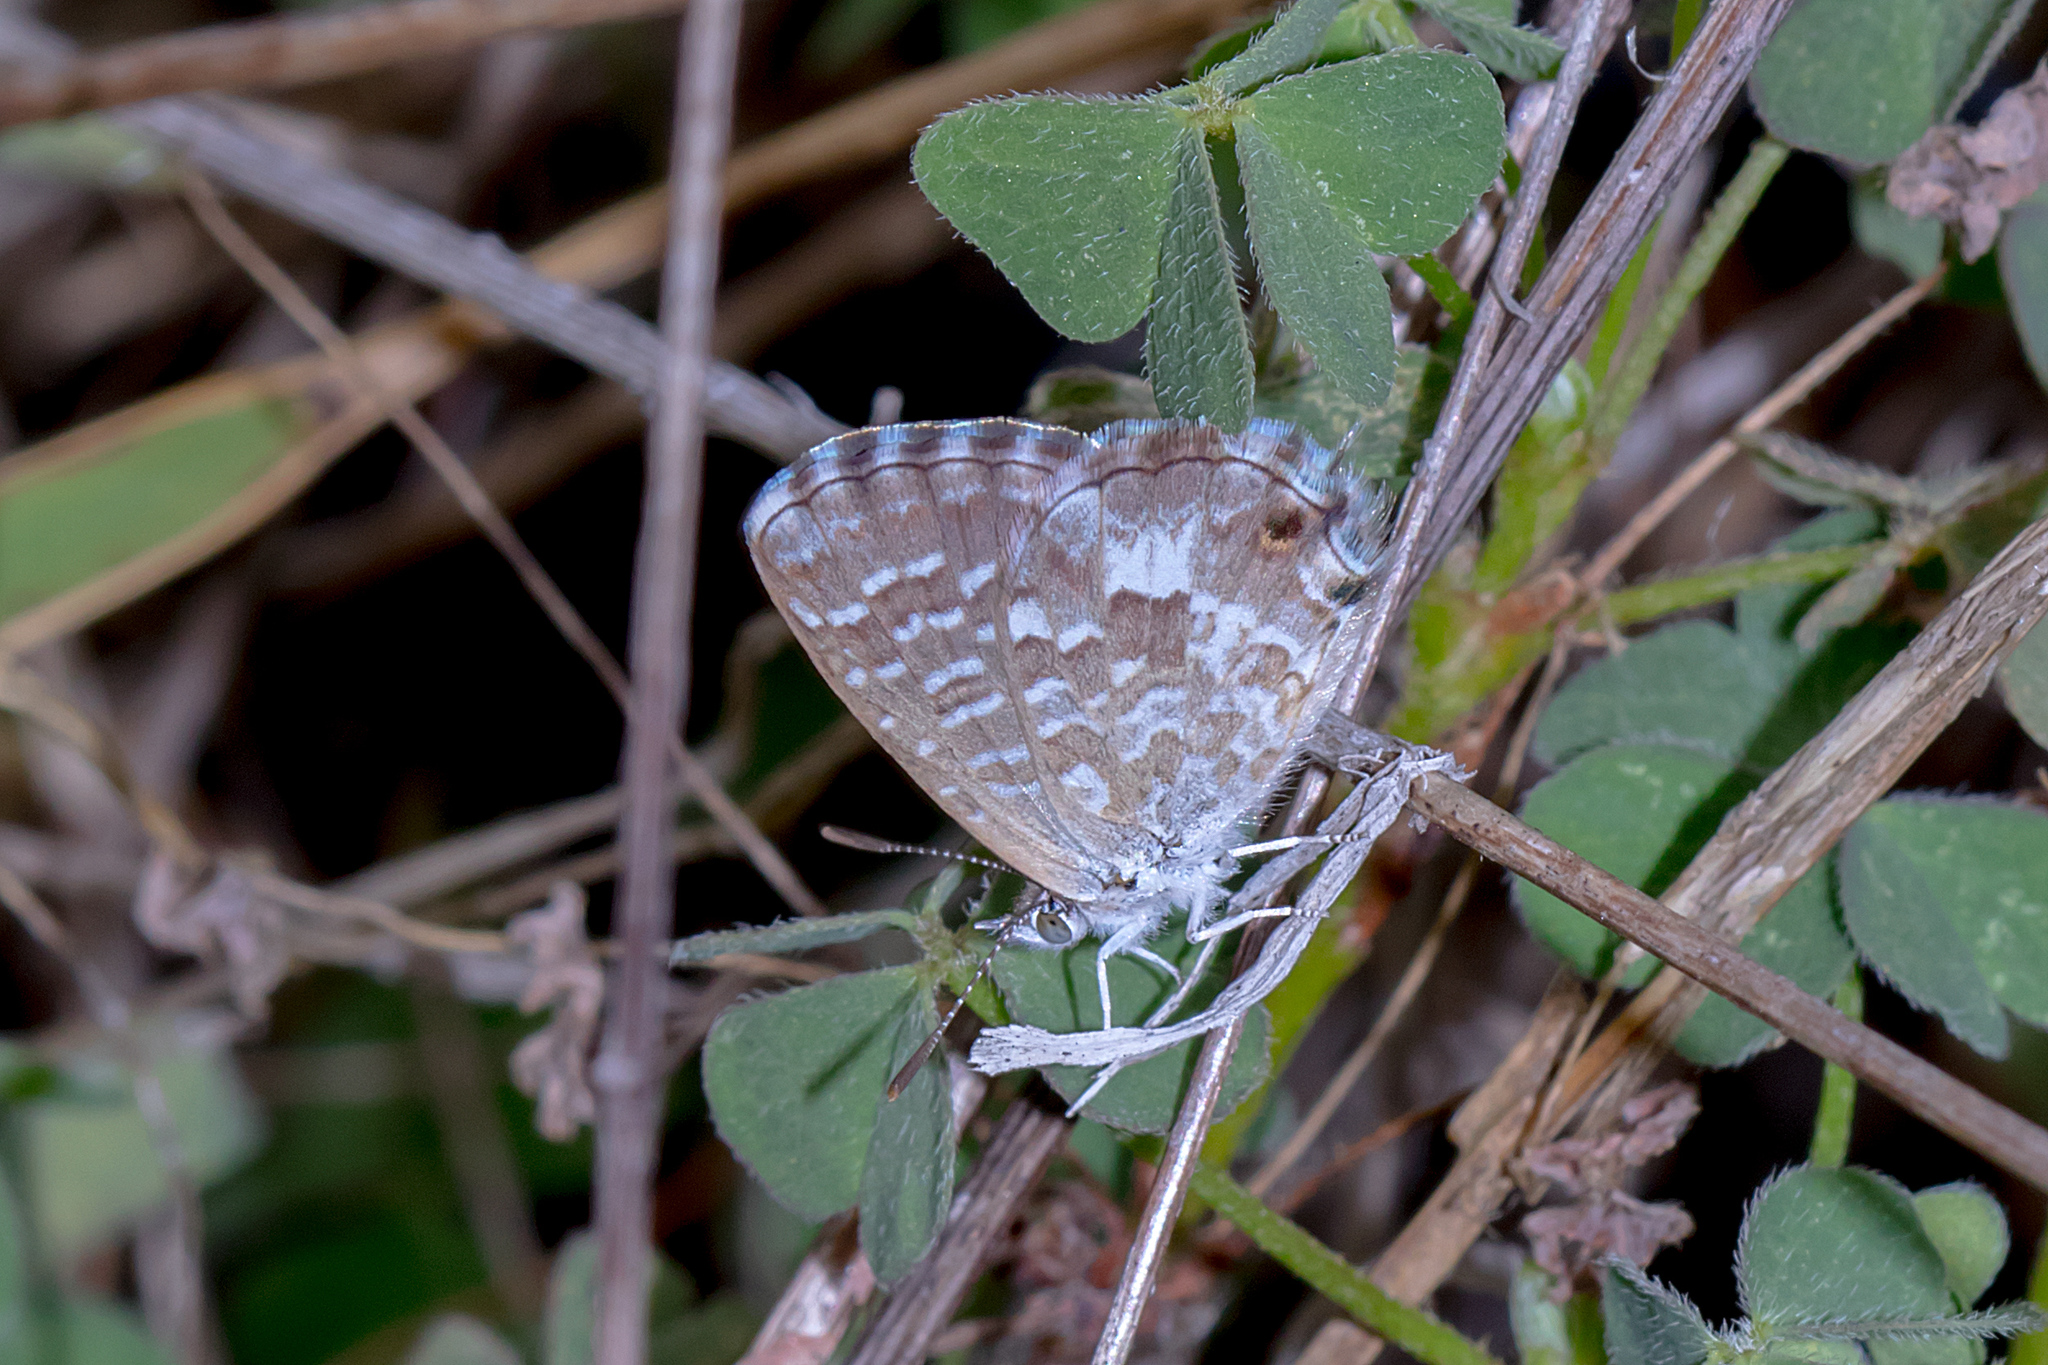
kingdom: Animalia
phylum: Arthropoda
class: Insecta
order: Lepidoptera
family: Lycaenidae
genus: Theclinesthes
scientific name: Theclinesthes miskini
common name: Wattle blue
